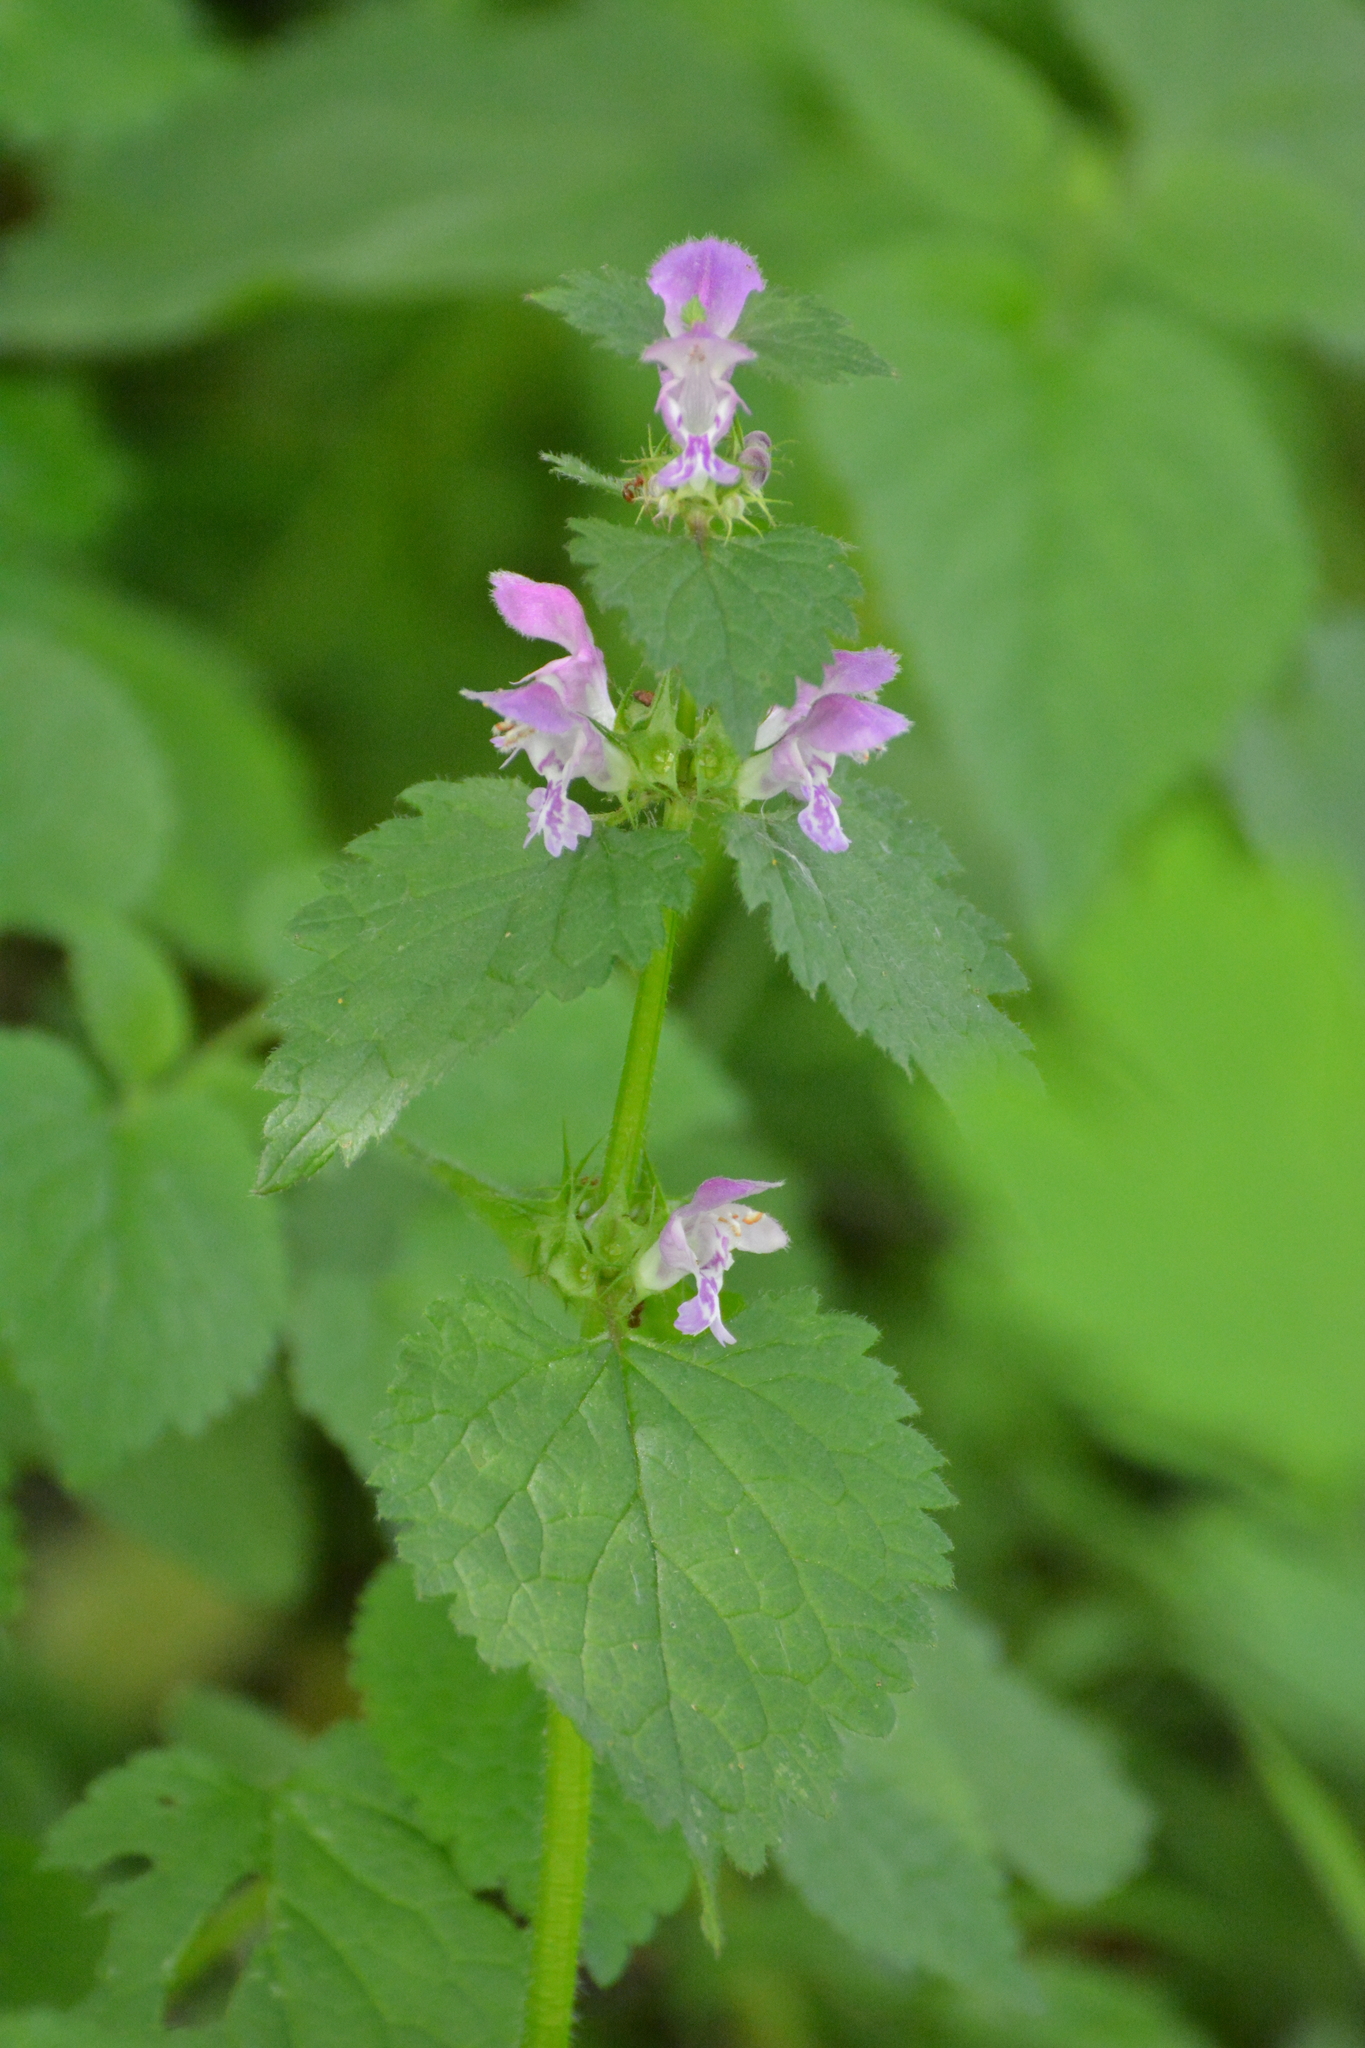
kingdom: Plantae
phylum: Tracheophyta
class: Magnoliopsida
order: Lamiales
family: Lamiaceae
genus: Lamium
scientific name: Lamium maculatum
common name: Spotted dead-nettle
